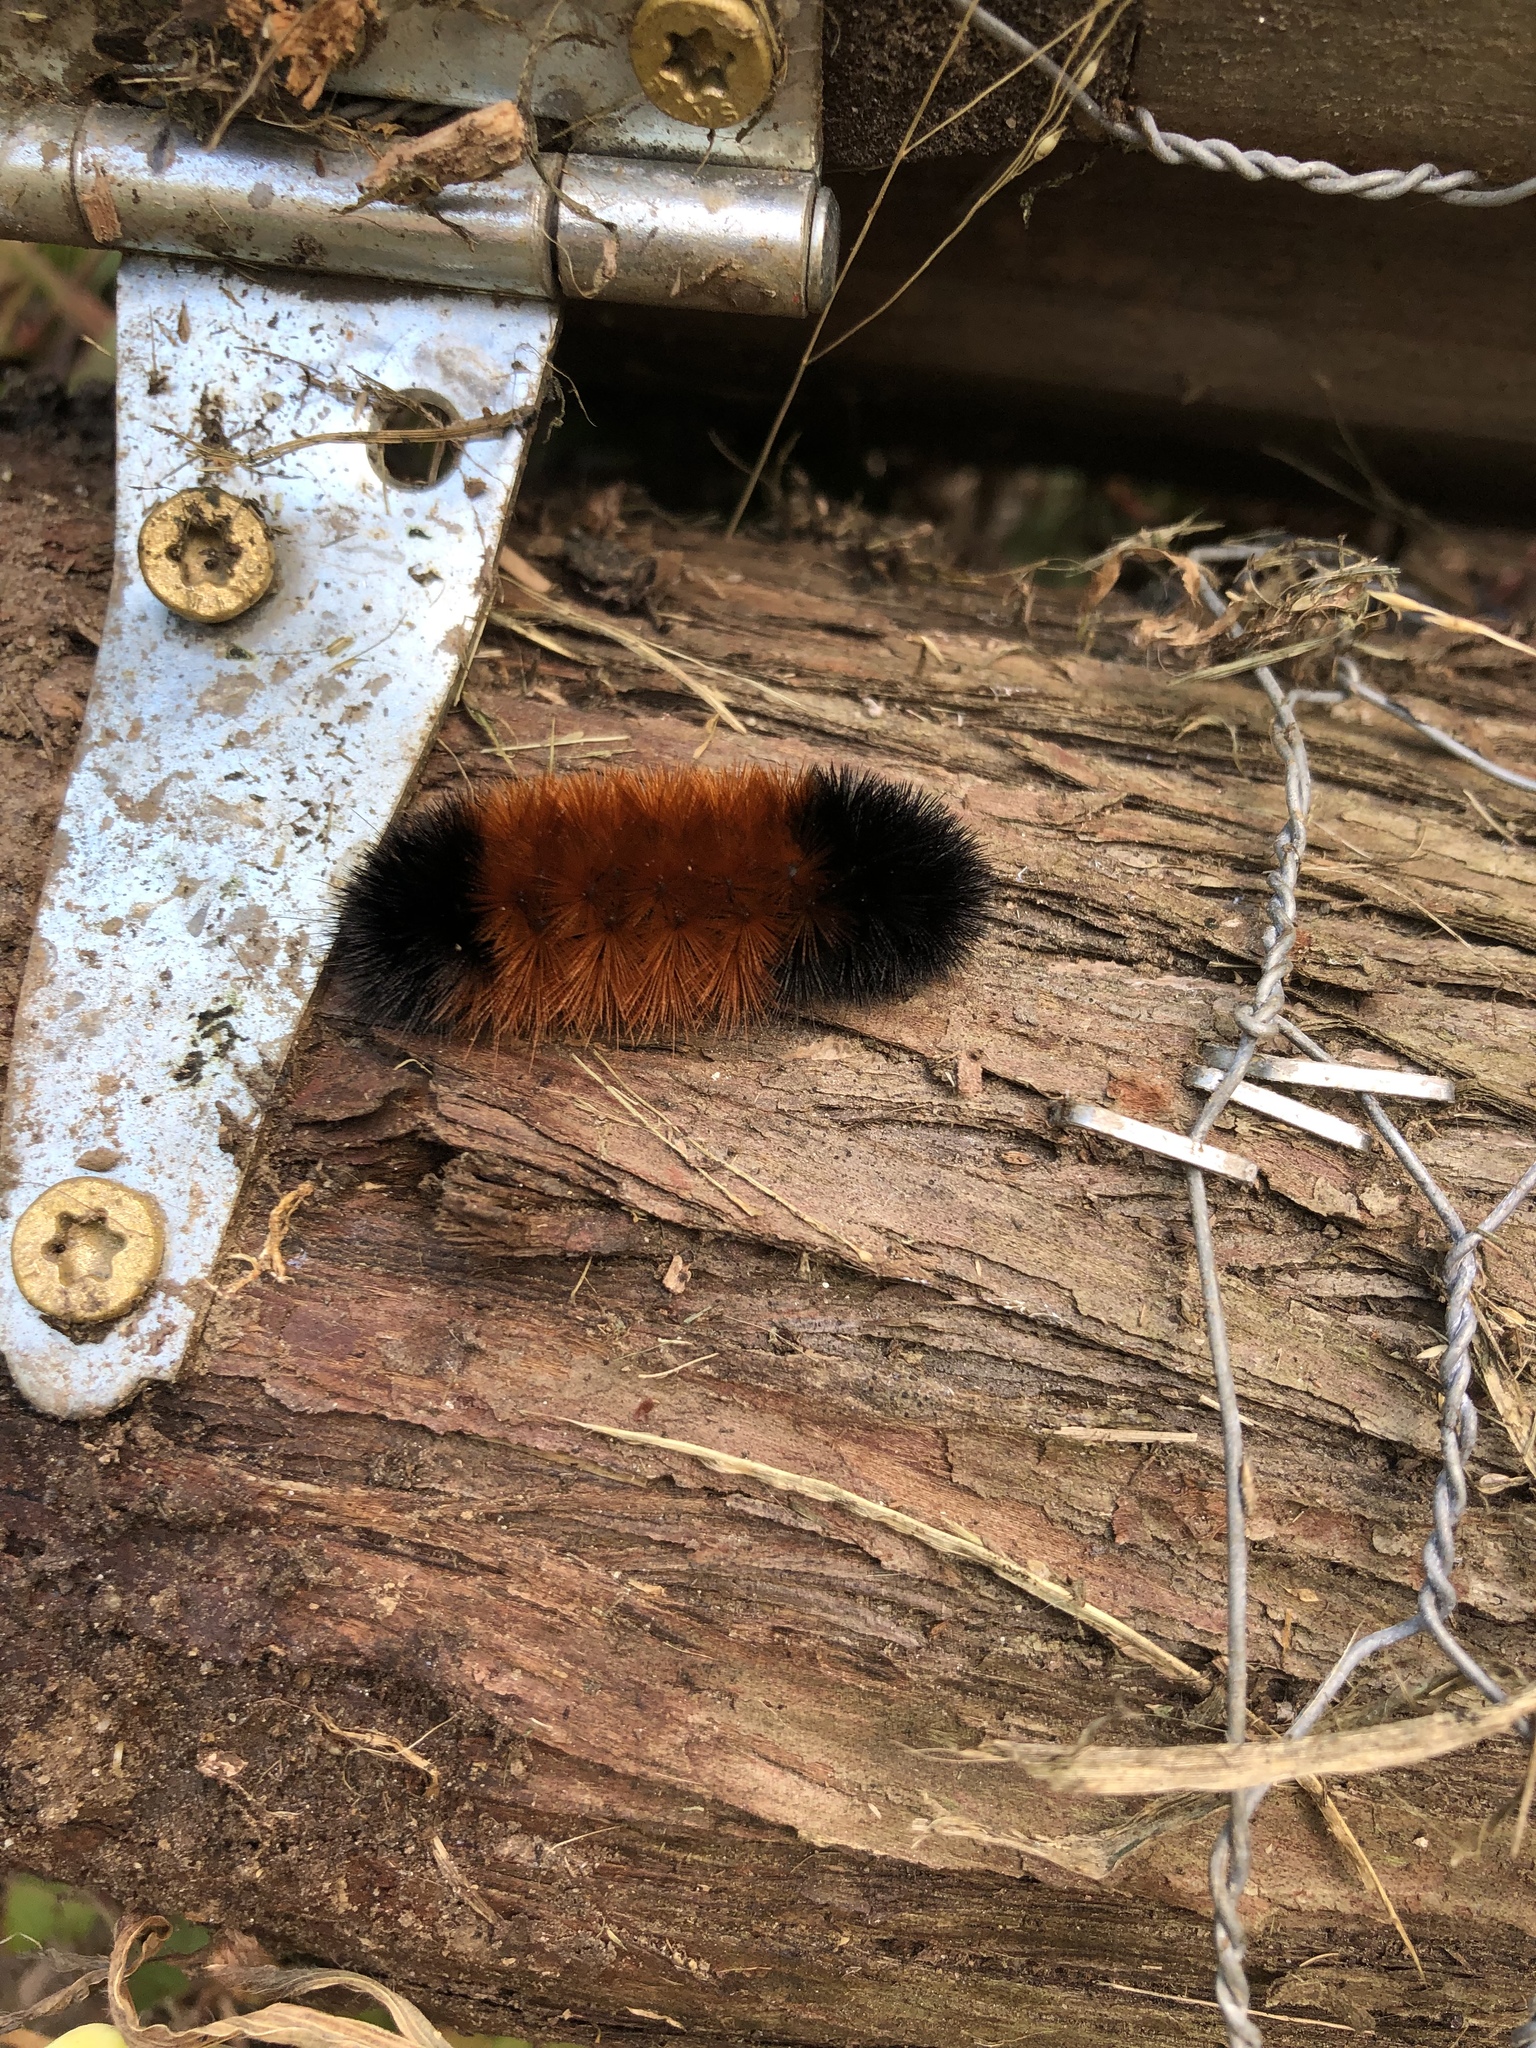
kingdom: Animalia
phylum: Arthropoda
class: Insecta
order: Lepidoptera
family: Erebidae
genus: Pyrrharctia
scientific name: Pyrrharctia isabella
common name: Isabella tiger moth
